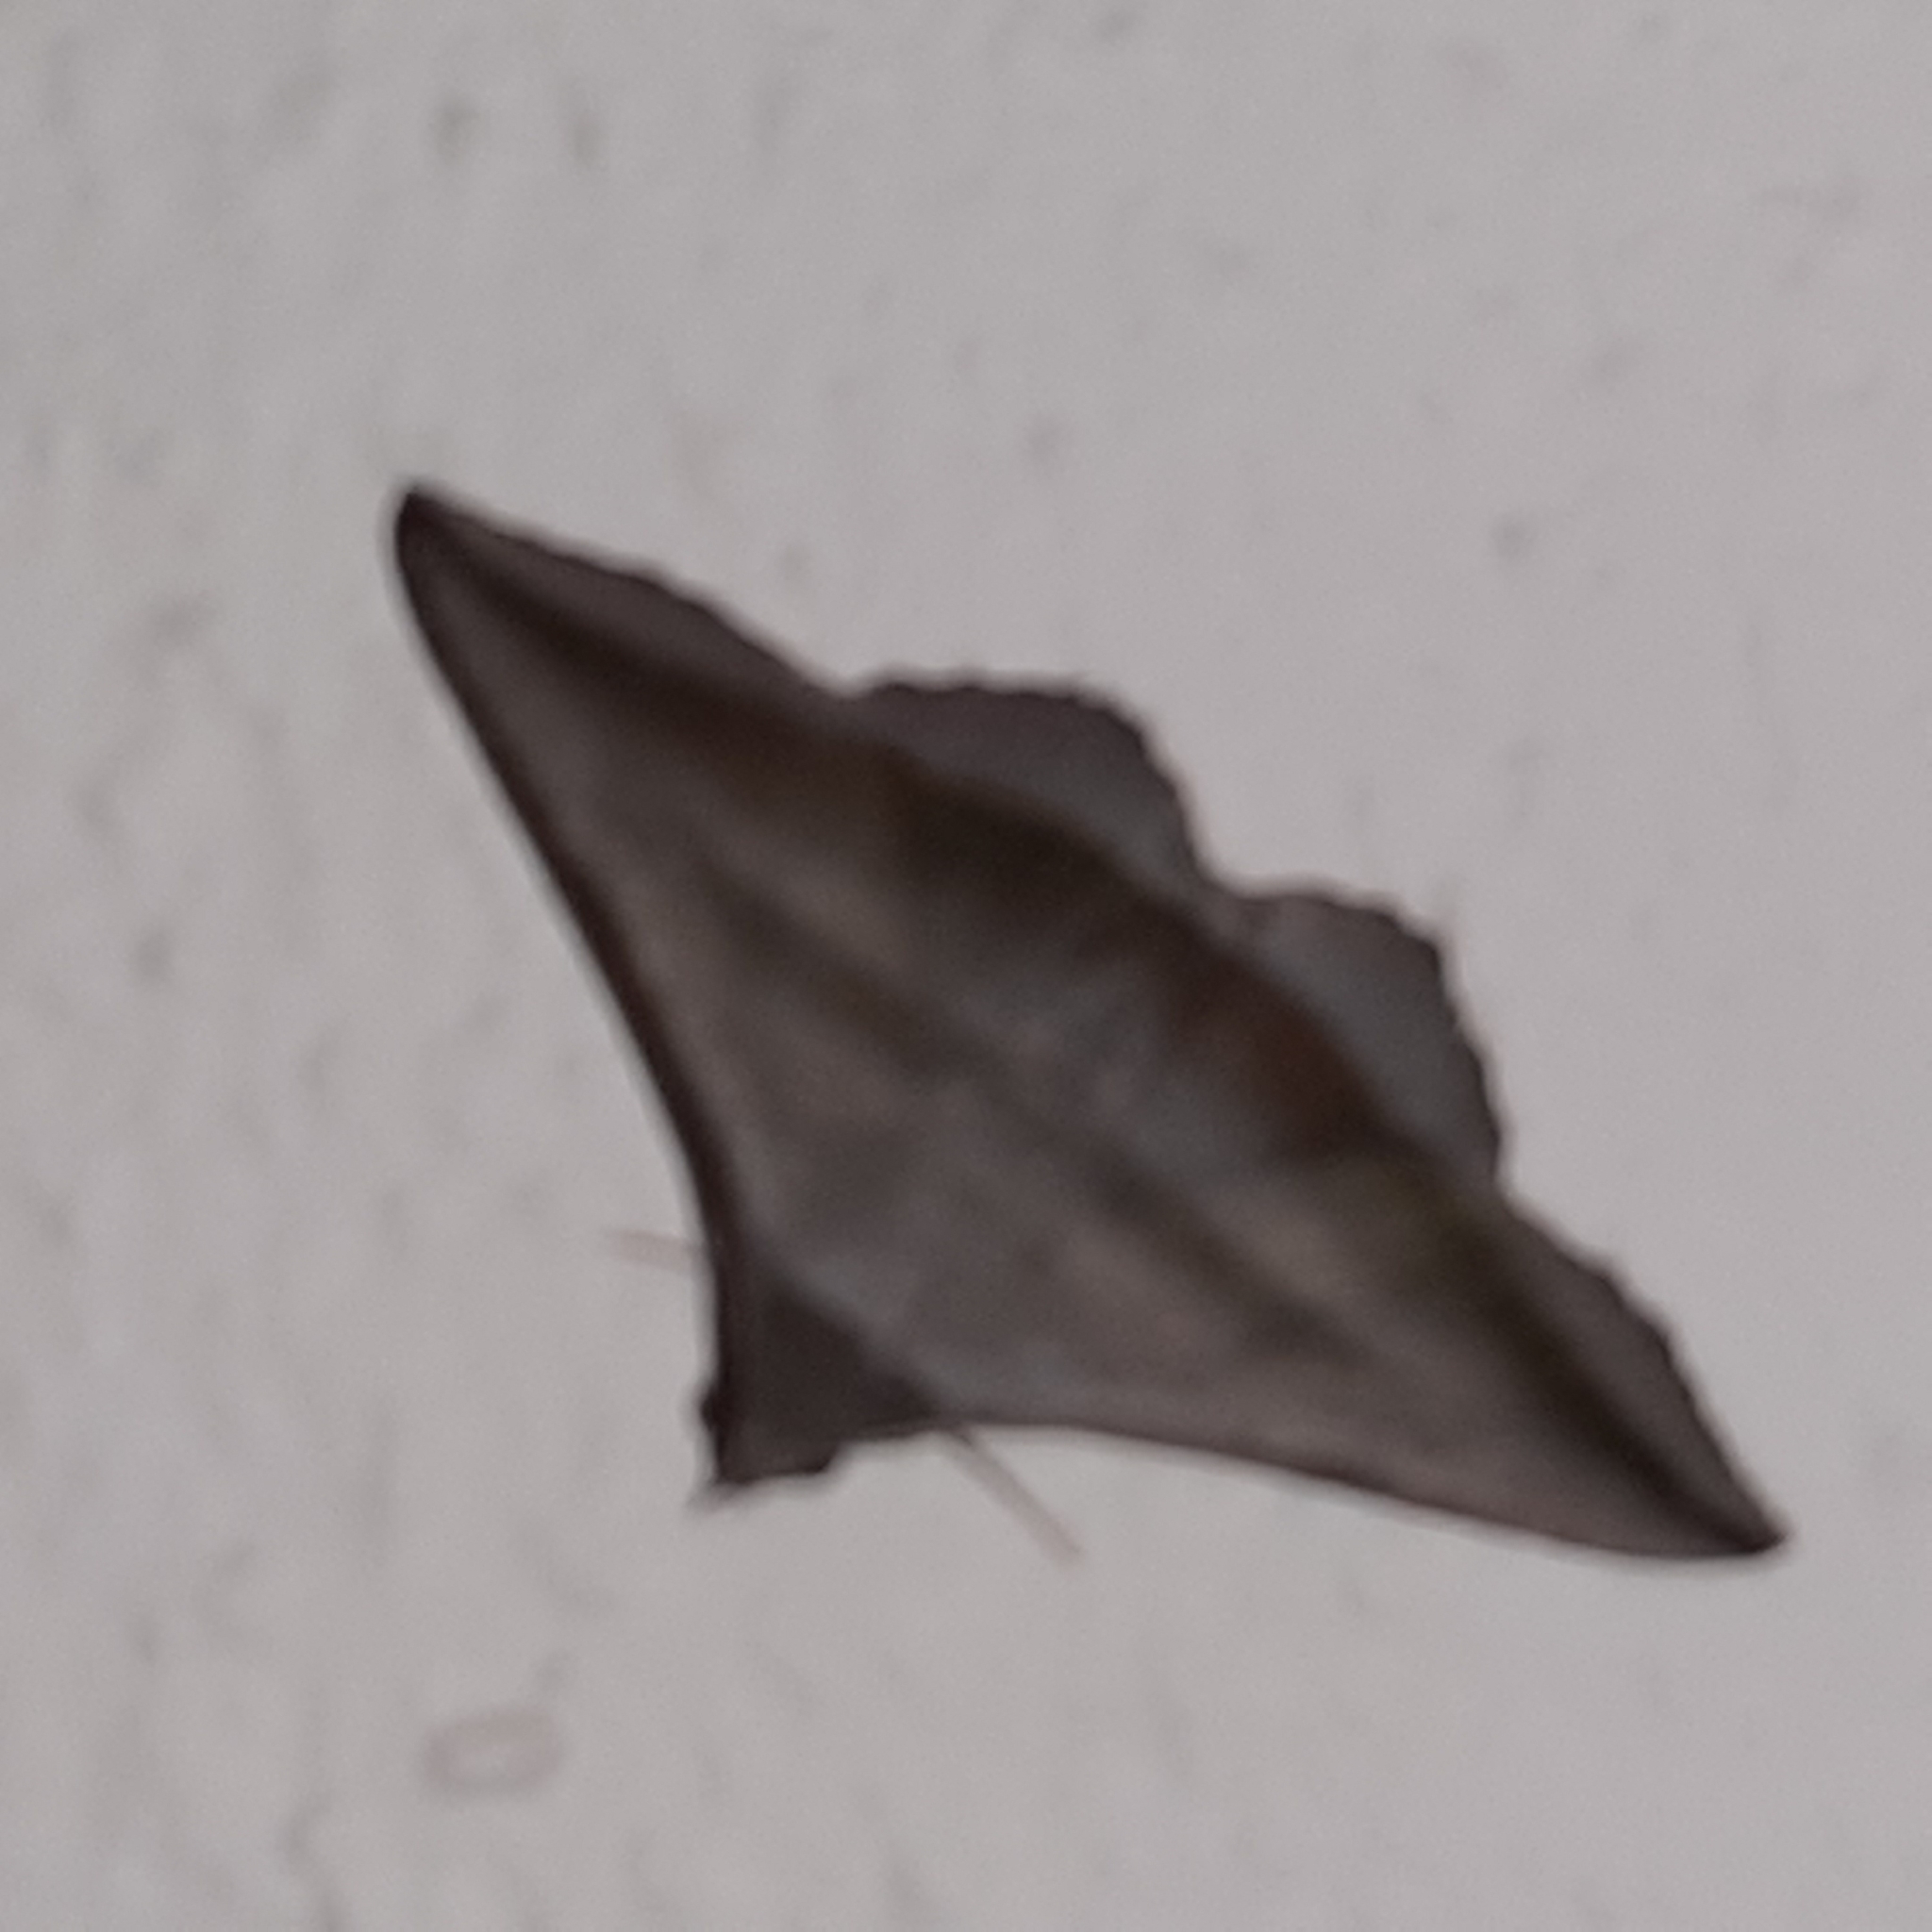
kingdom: Animalia
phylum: Arthropoda
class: Insecta
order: Lepidoptera
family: Erebidae
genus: Lesmone
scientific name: Lesmone formularis
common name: Lesmone moth
